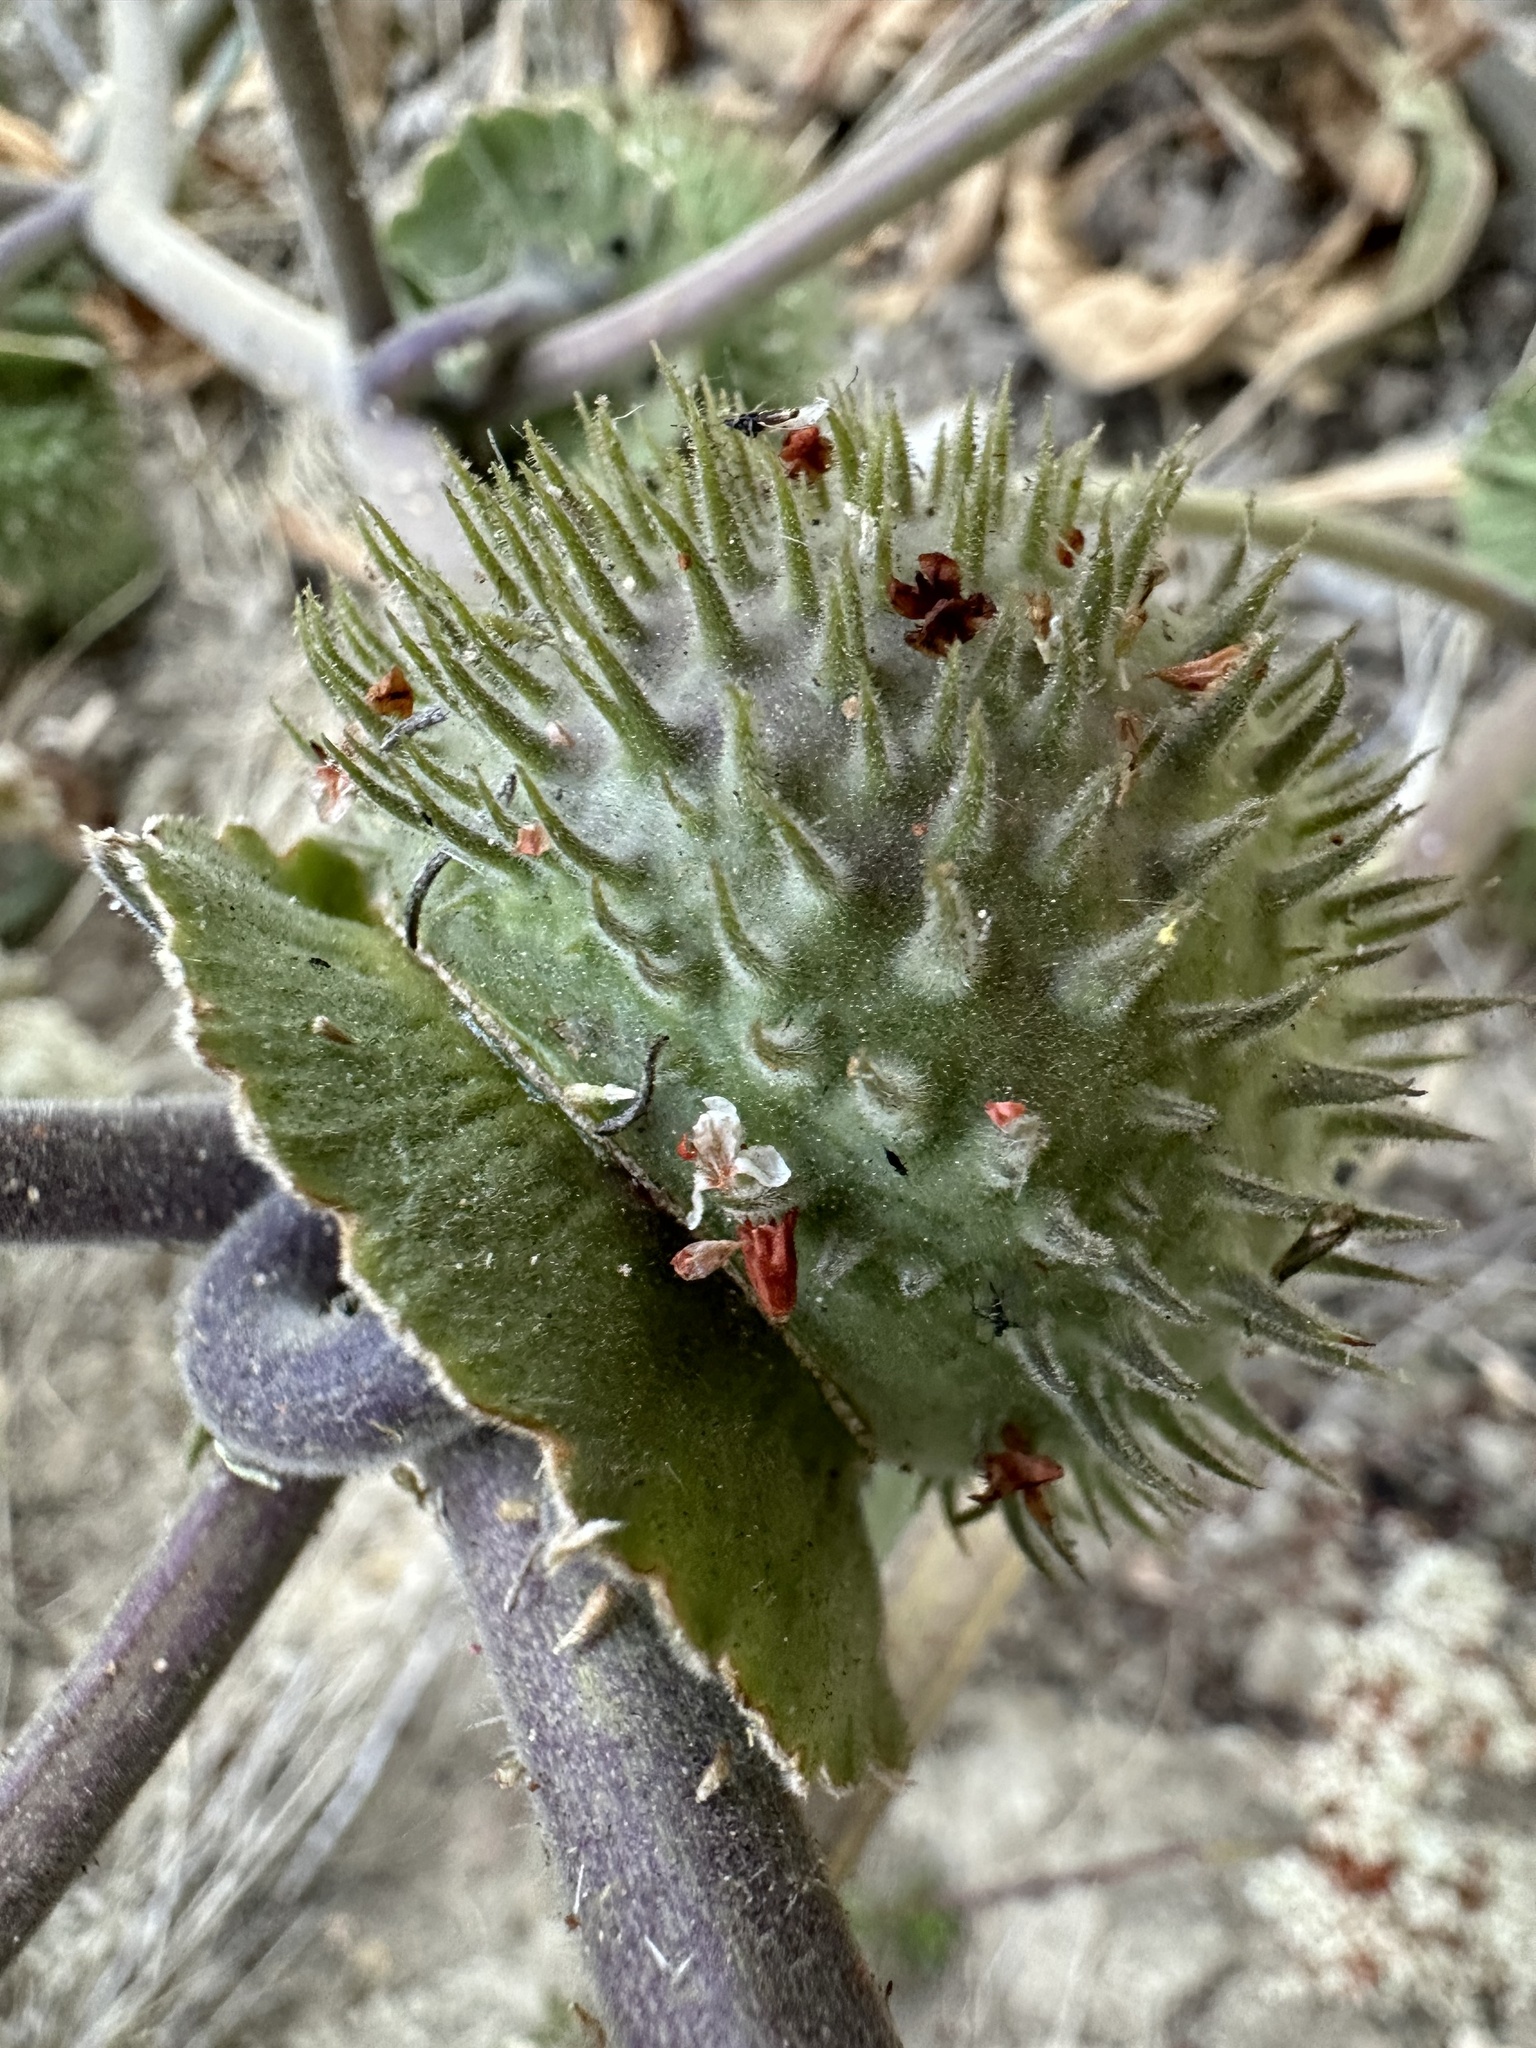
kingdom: Plantae
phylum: Tracheophyta
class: Magnoliopsida
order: Solanales
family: Solanaceae
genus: Datura
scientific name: Datura wrightii
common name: Sacred thorn-apple
